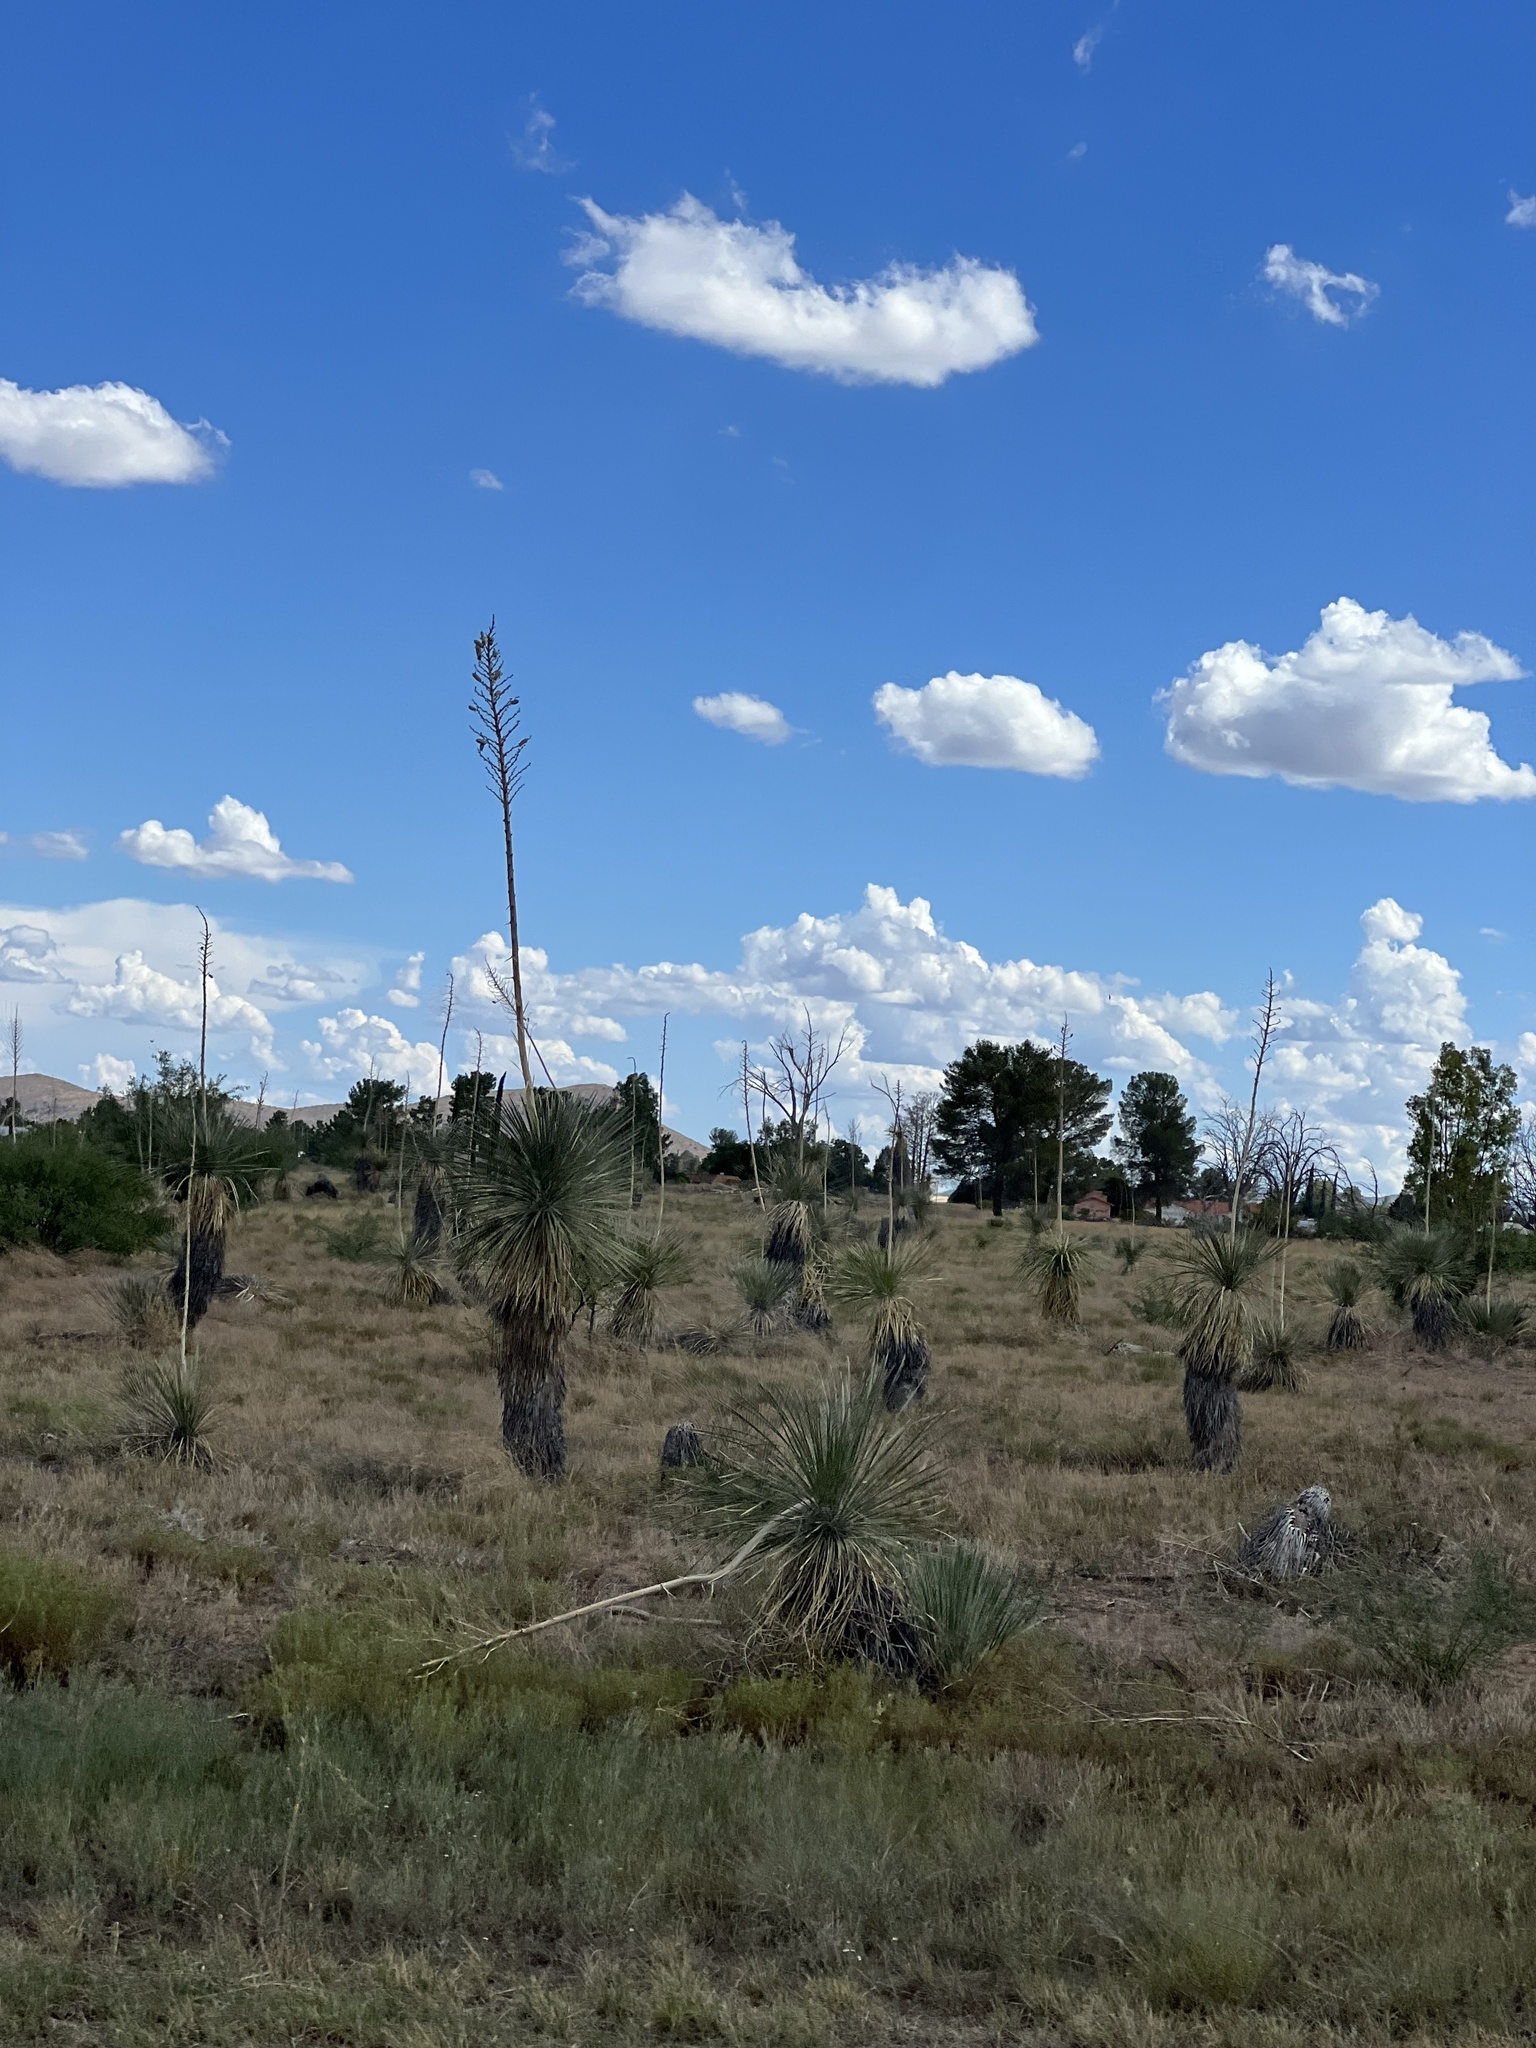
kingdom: Plantae
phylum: Tracheophyta
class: Liliopsida
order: Asparagales
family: Asparagaceae
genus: Yucca
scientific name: Yucca elata
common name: Palmella
